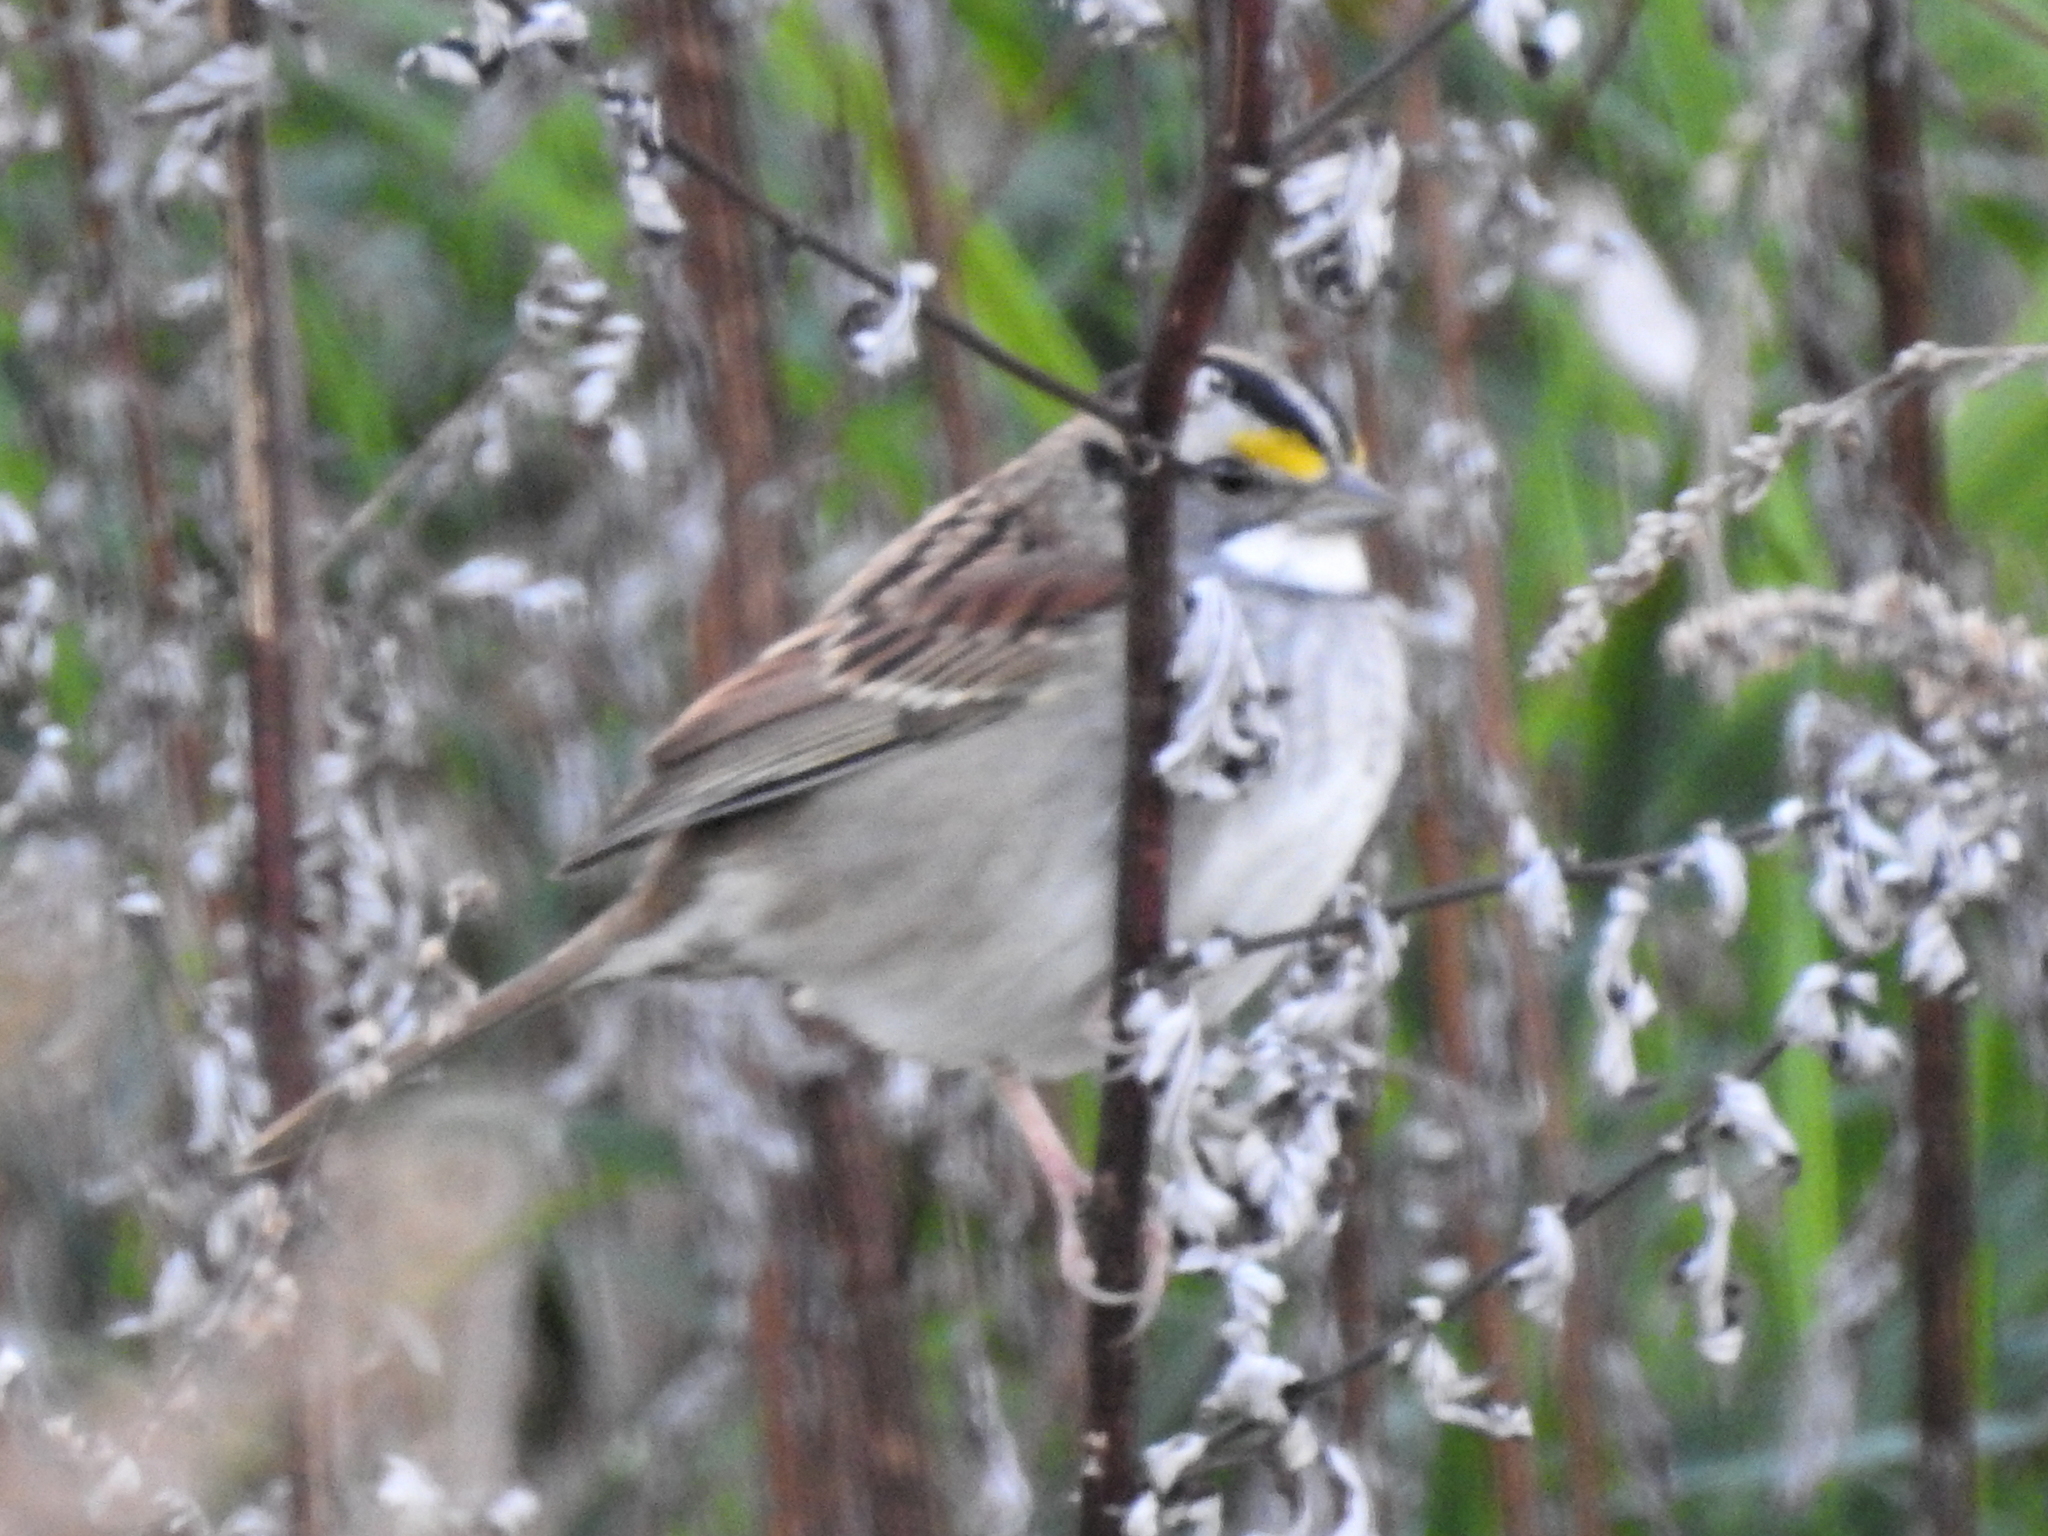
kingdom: Animalia
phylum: Chordata
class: Aves
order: Passeriformes
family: Passerellidae
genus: Zonotrichia
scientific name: Zonotrichia albicollis
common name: White-throated sparrow
